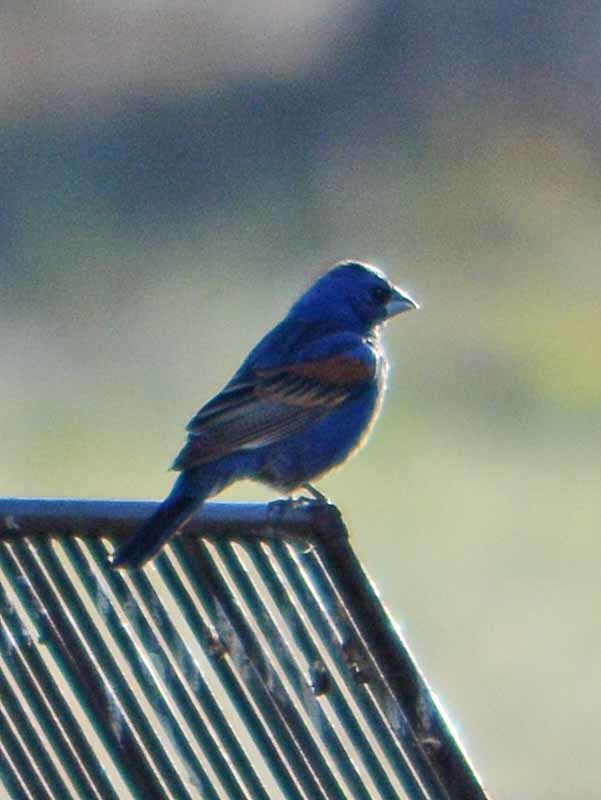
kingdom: Animalia
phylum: Chordata
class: Aves
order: Passeriformes
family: Cardinalidae
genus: Passerina
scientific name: Passerina caerulea
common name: Blue grosbeak
